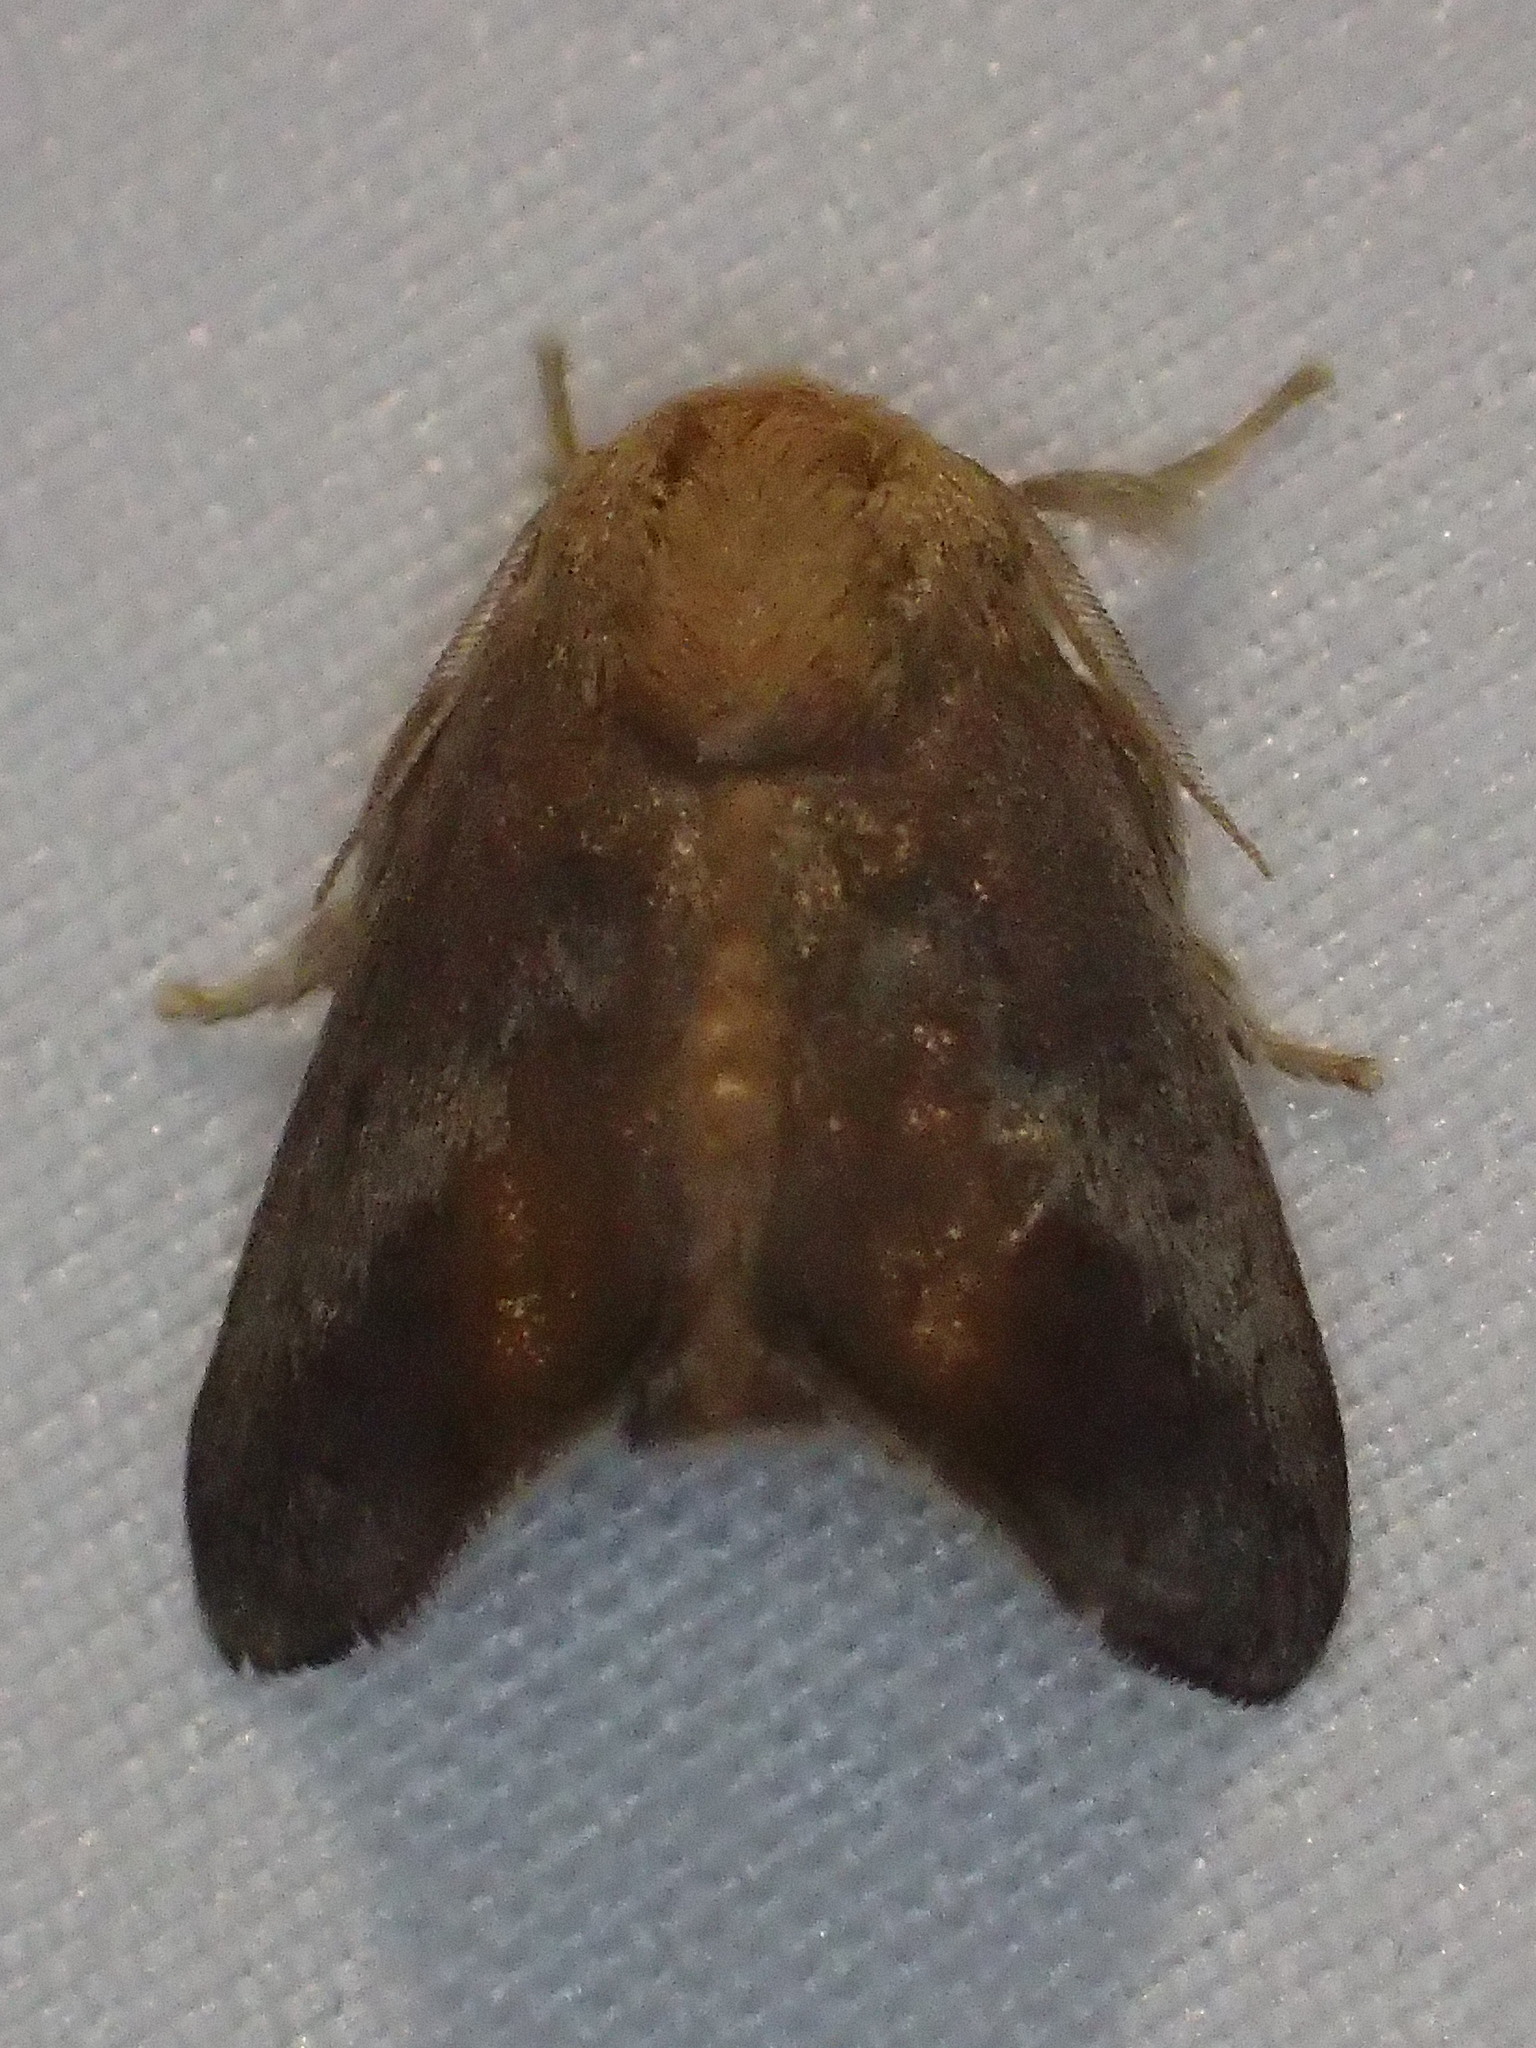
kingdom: Animalia
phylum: Arthropoda
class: Insecta
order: Lepidoptera
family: Limacodidae
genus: Isa
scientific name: Isa textula
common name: Crowned slug moth
